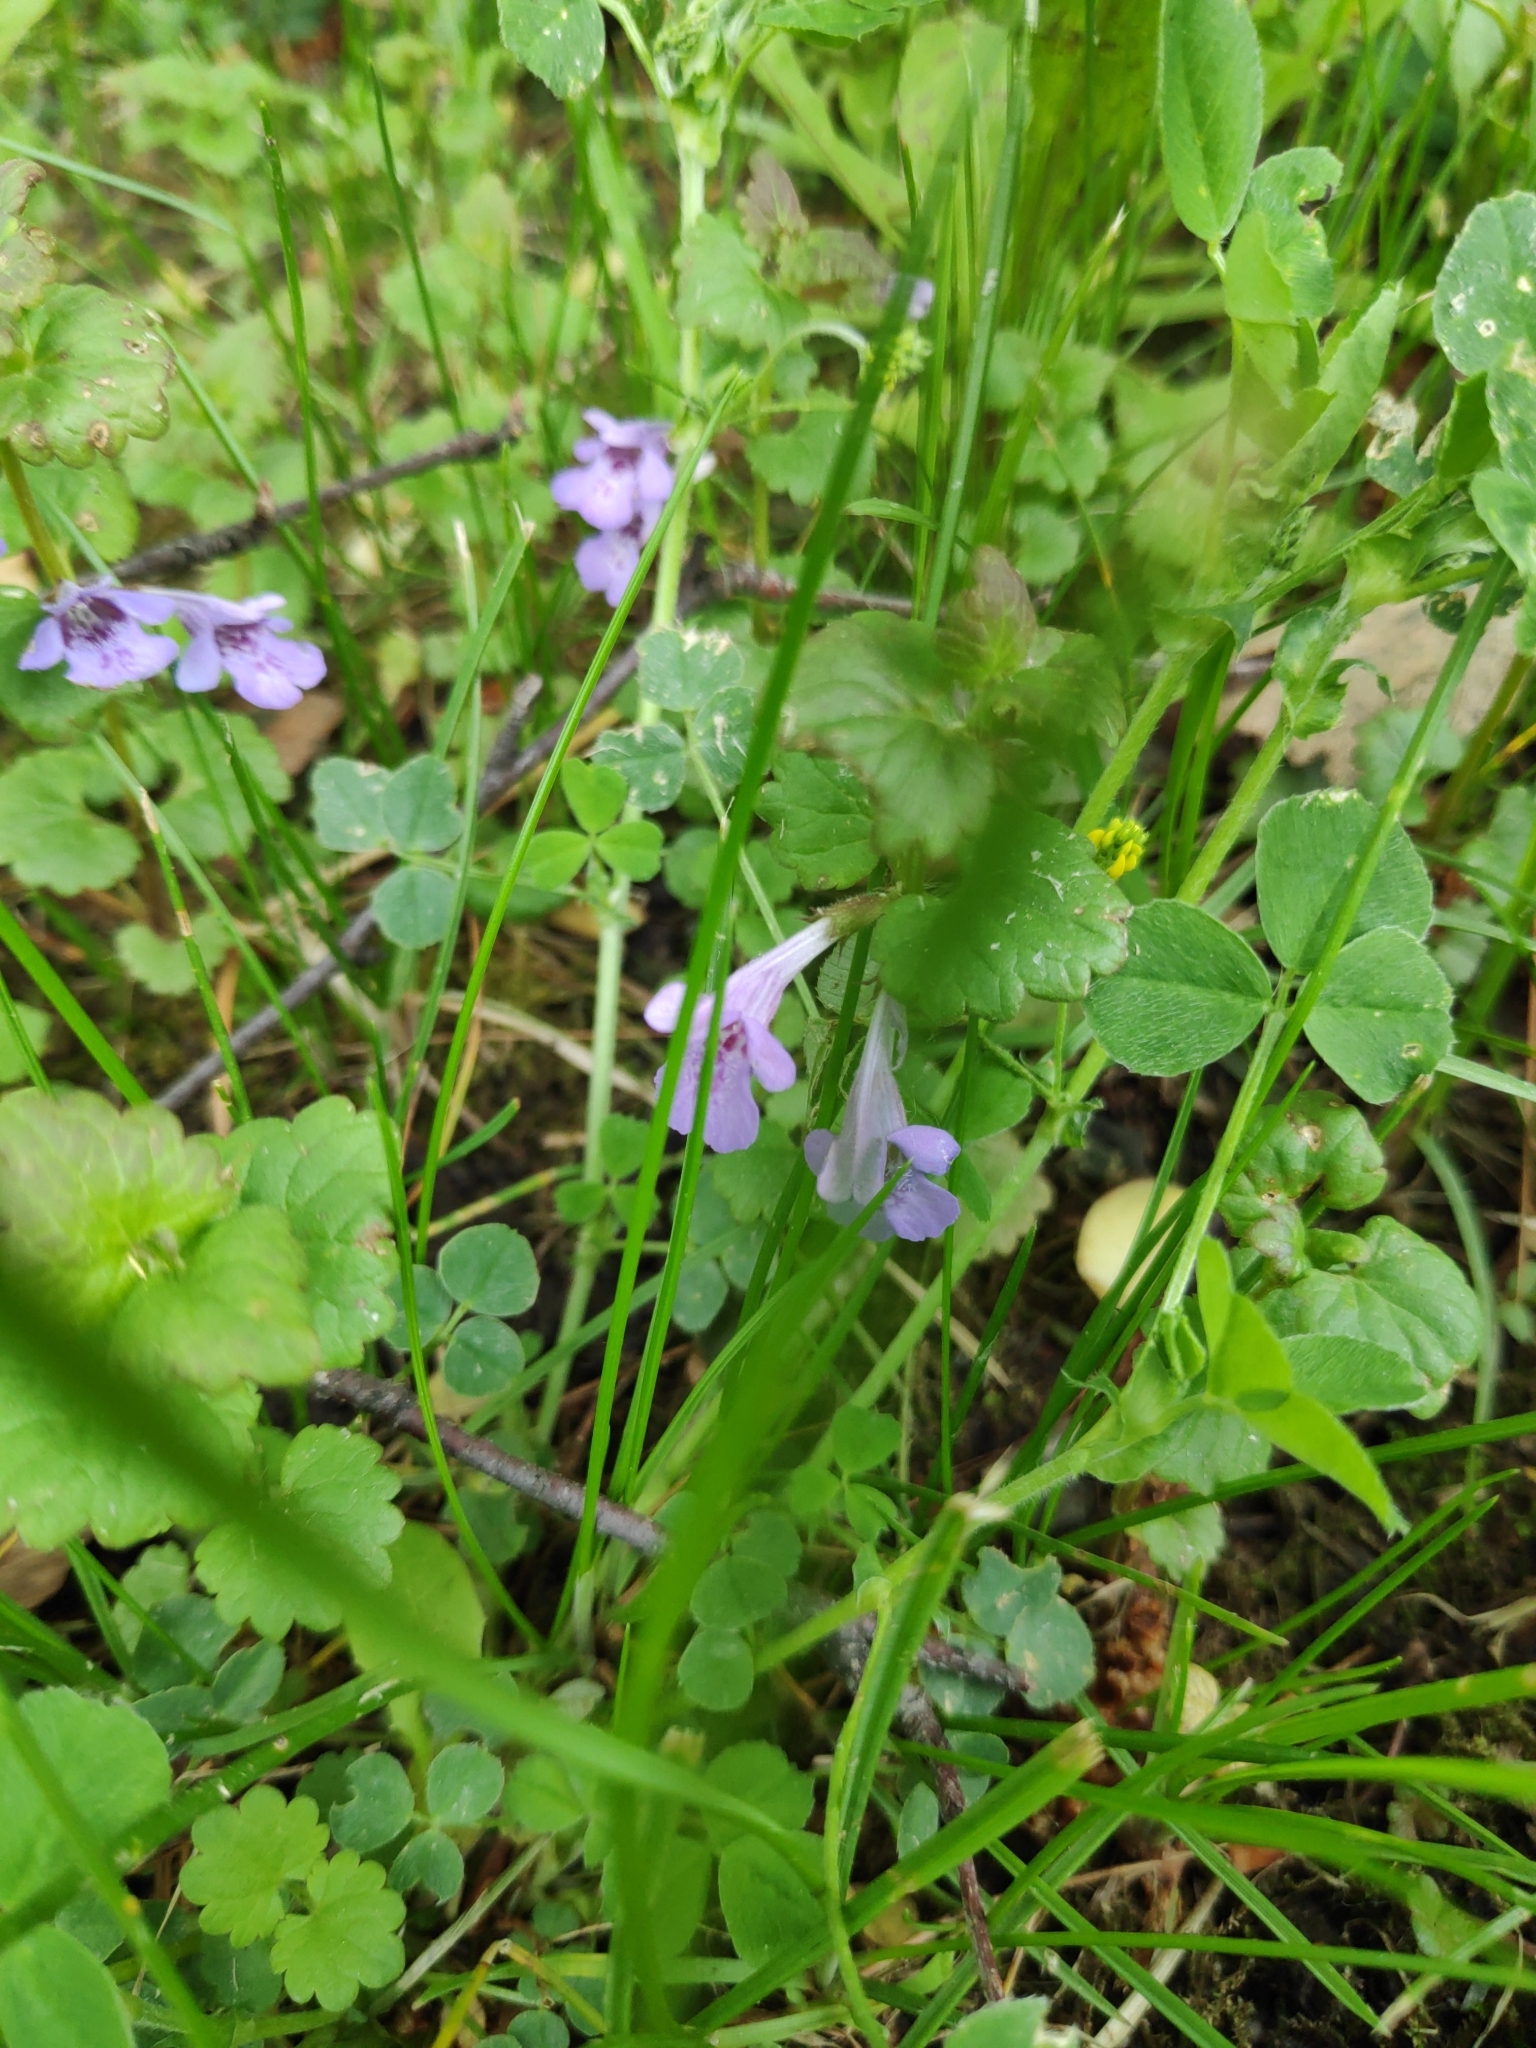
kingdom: Plantae
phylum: Tracheophyta
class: Magnoliopsida
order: Lamiales
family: Lamiaceae
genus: Glechoma
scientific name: Glechoma hederacea
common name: Ground ivy
